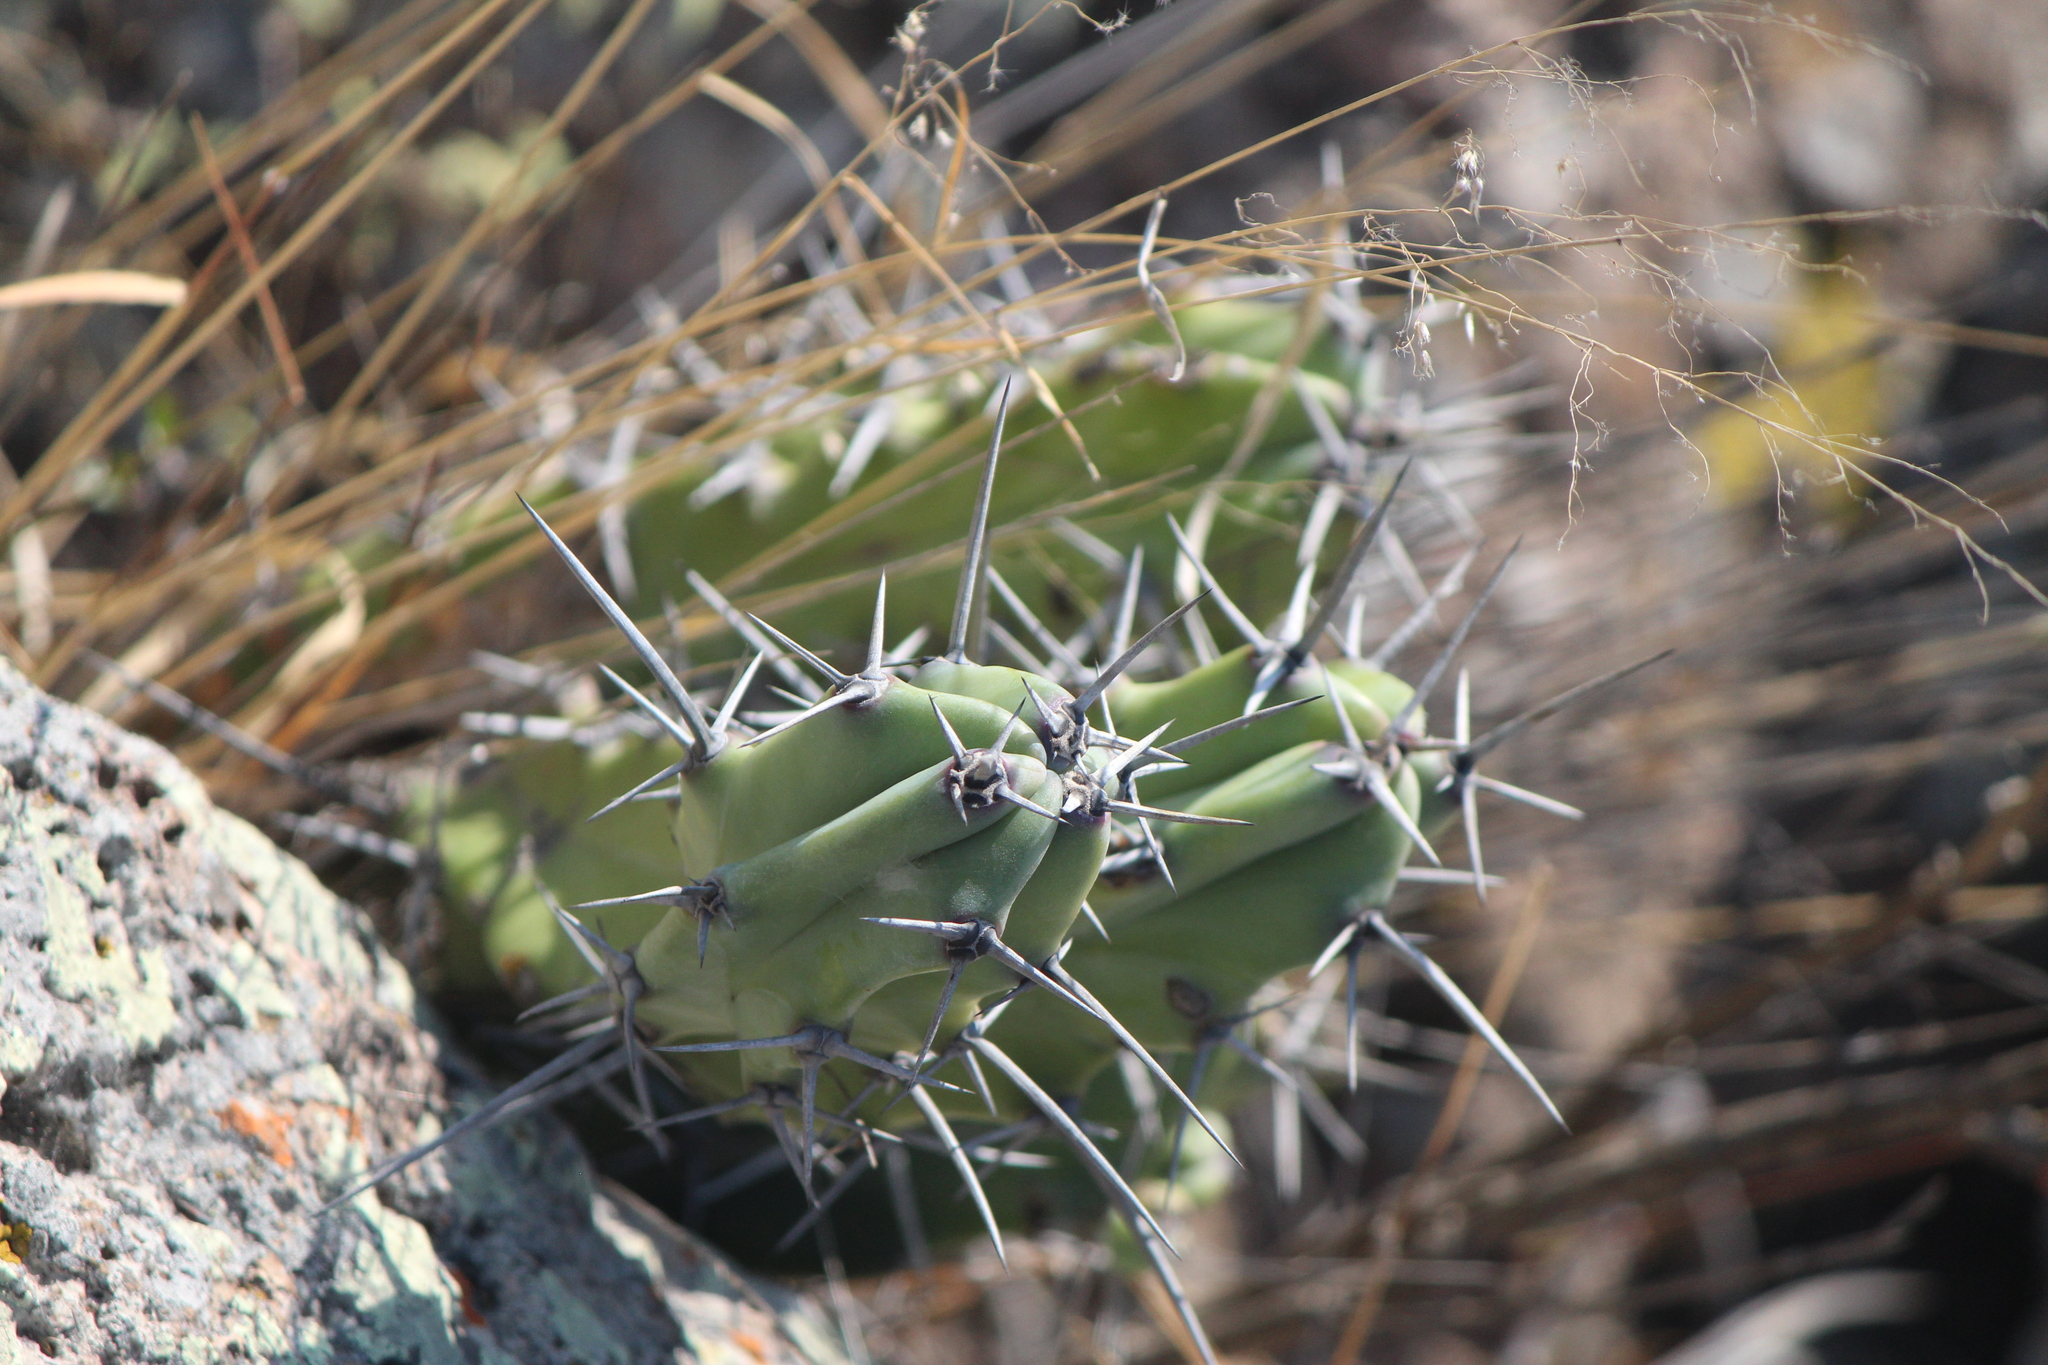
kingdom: Plantae
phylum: Tracheophyta
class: Magnoliopsida
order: Caryophyllales
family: Cactaceae
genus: Myrtillocactus
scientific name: Myrtillocactus geometrizans
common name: Bilberry cactus
